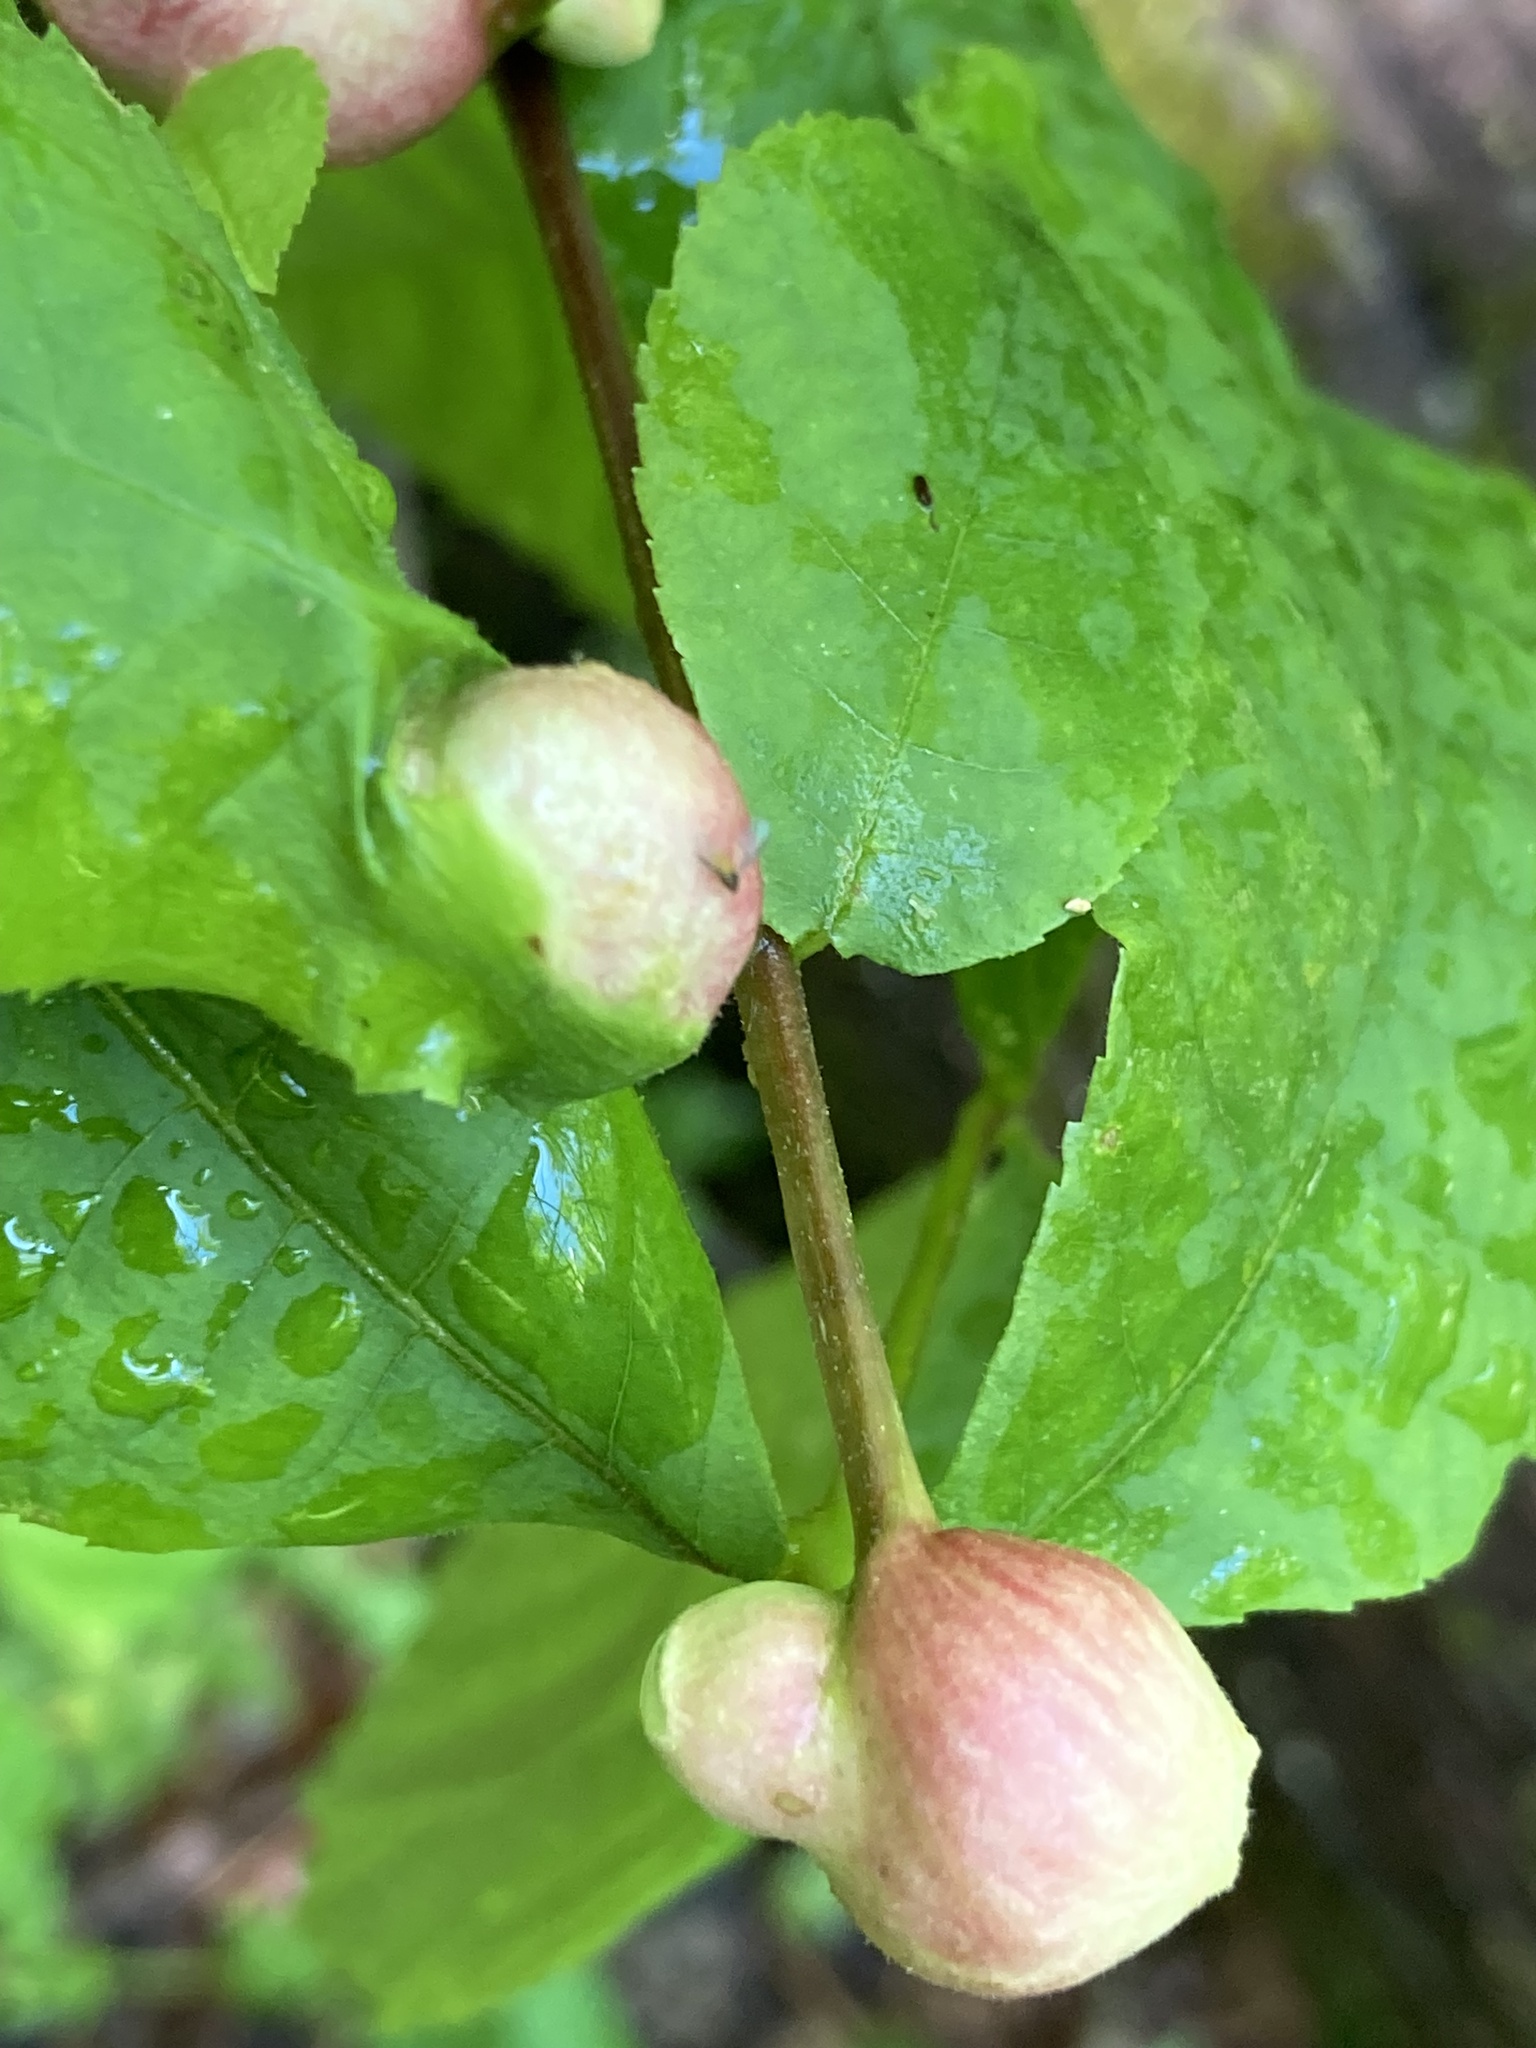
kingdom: Animalia
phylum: Arthropoda
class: Insecta
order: Hemiptera
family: Phylloxeridae
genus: Phylloxera
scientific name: Phylloxera
